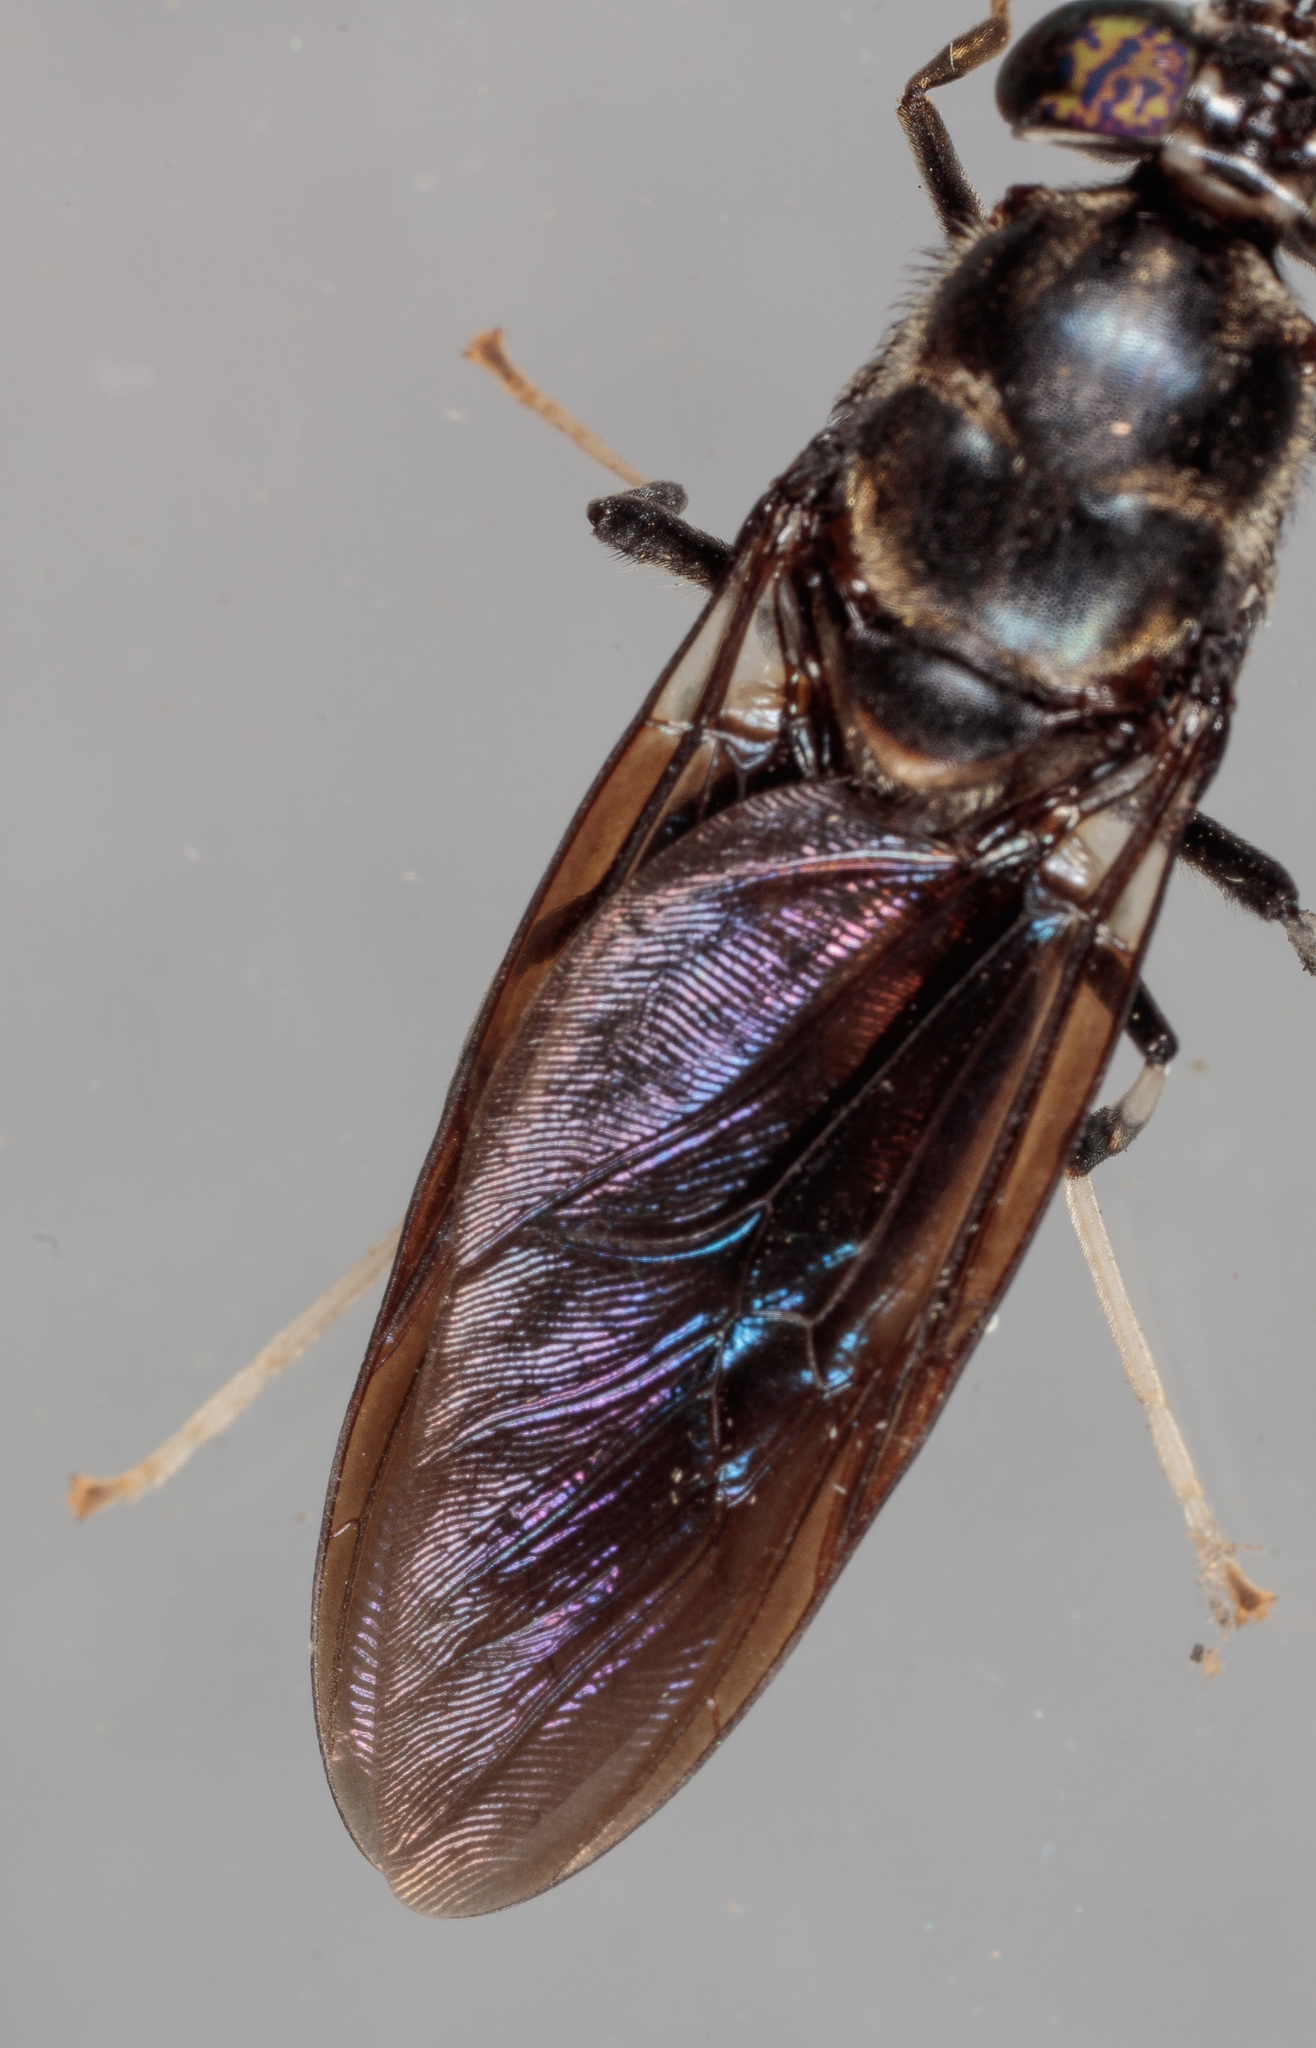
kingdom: Animalia
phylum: Arthropoda
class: Insecta
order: Diptera
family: Stratiomyidae
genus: Hermetia
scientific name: Hermetia illucens
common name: Black soldier fly
